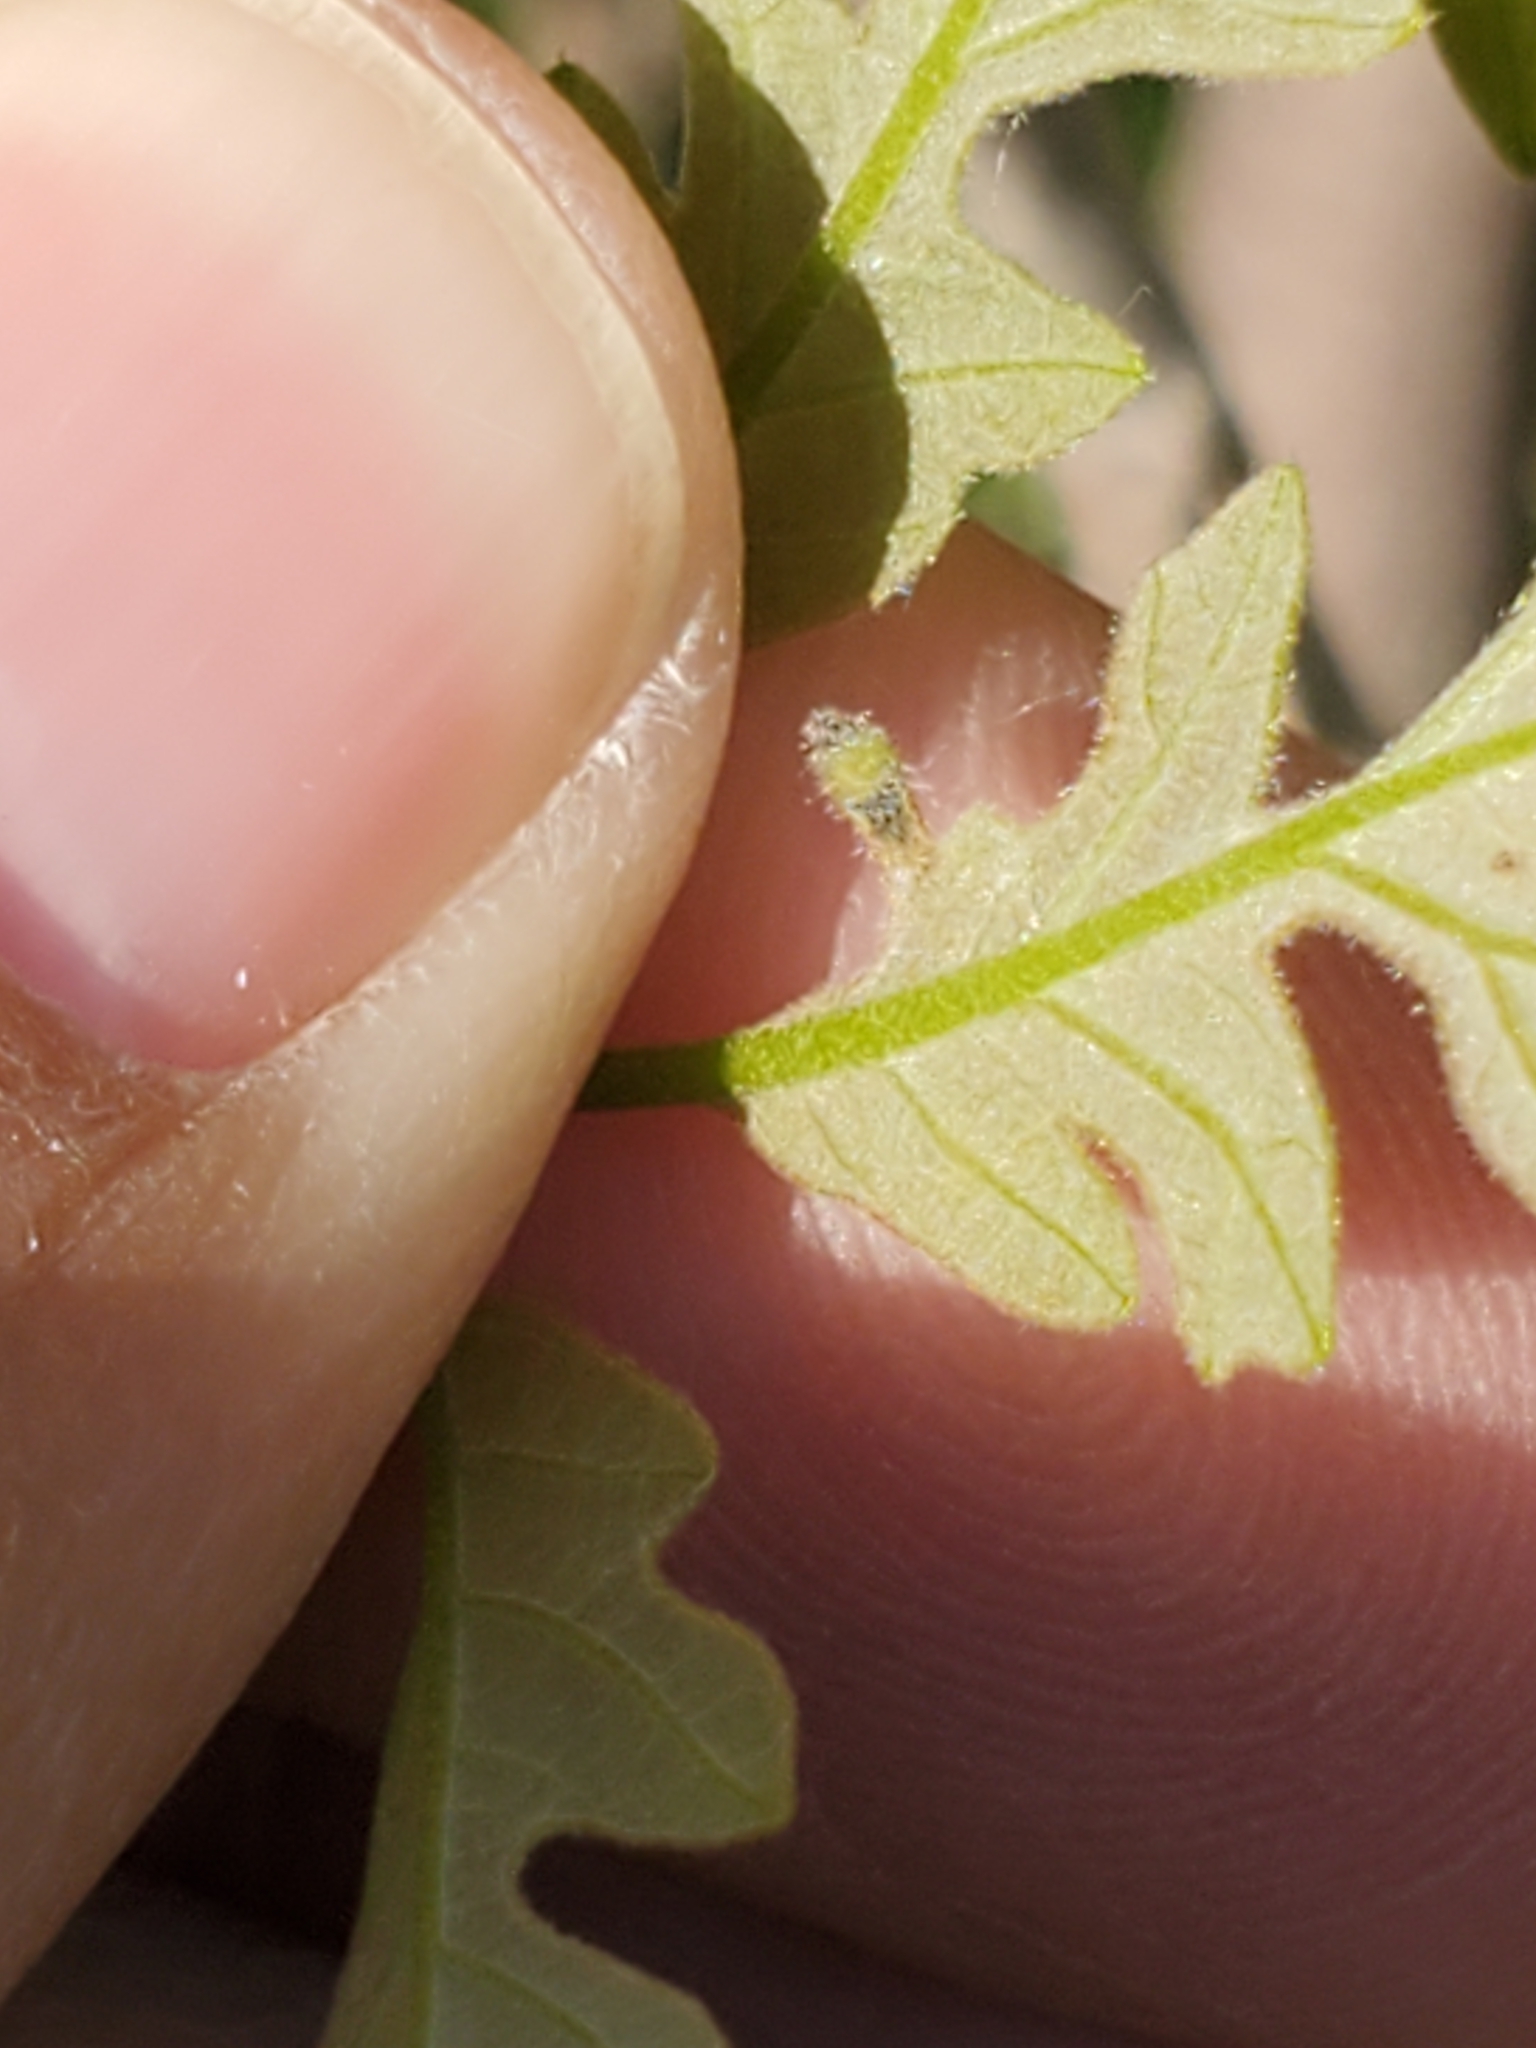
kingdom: Animalia
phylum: Arthropoda
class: Insecta
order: Hymenoptera
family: Cynipidae
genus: Andricus
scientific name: Andricus
